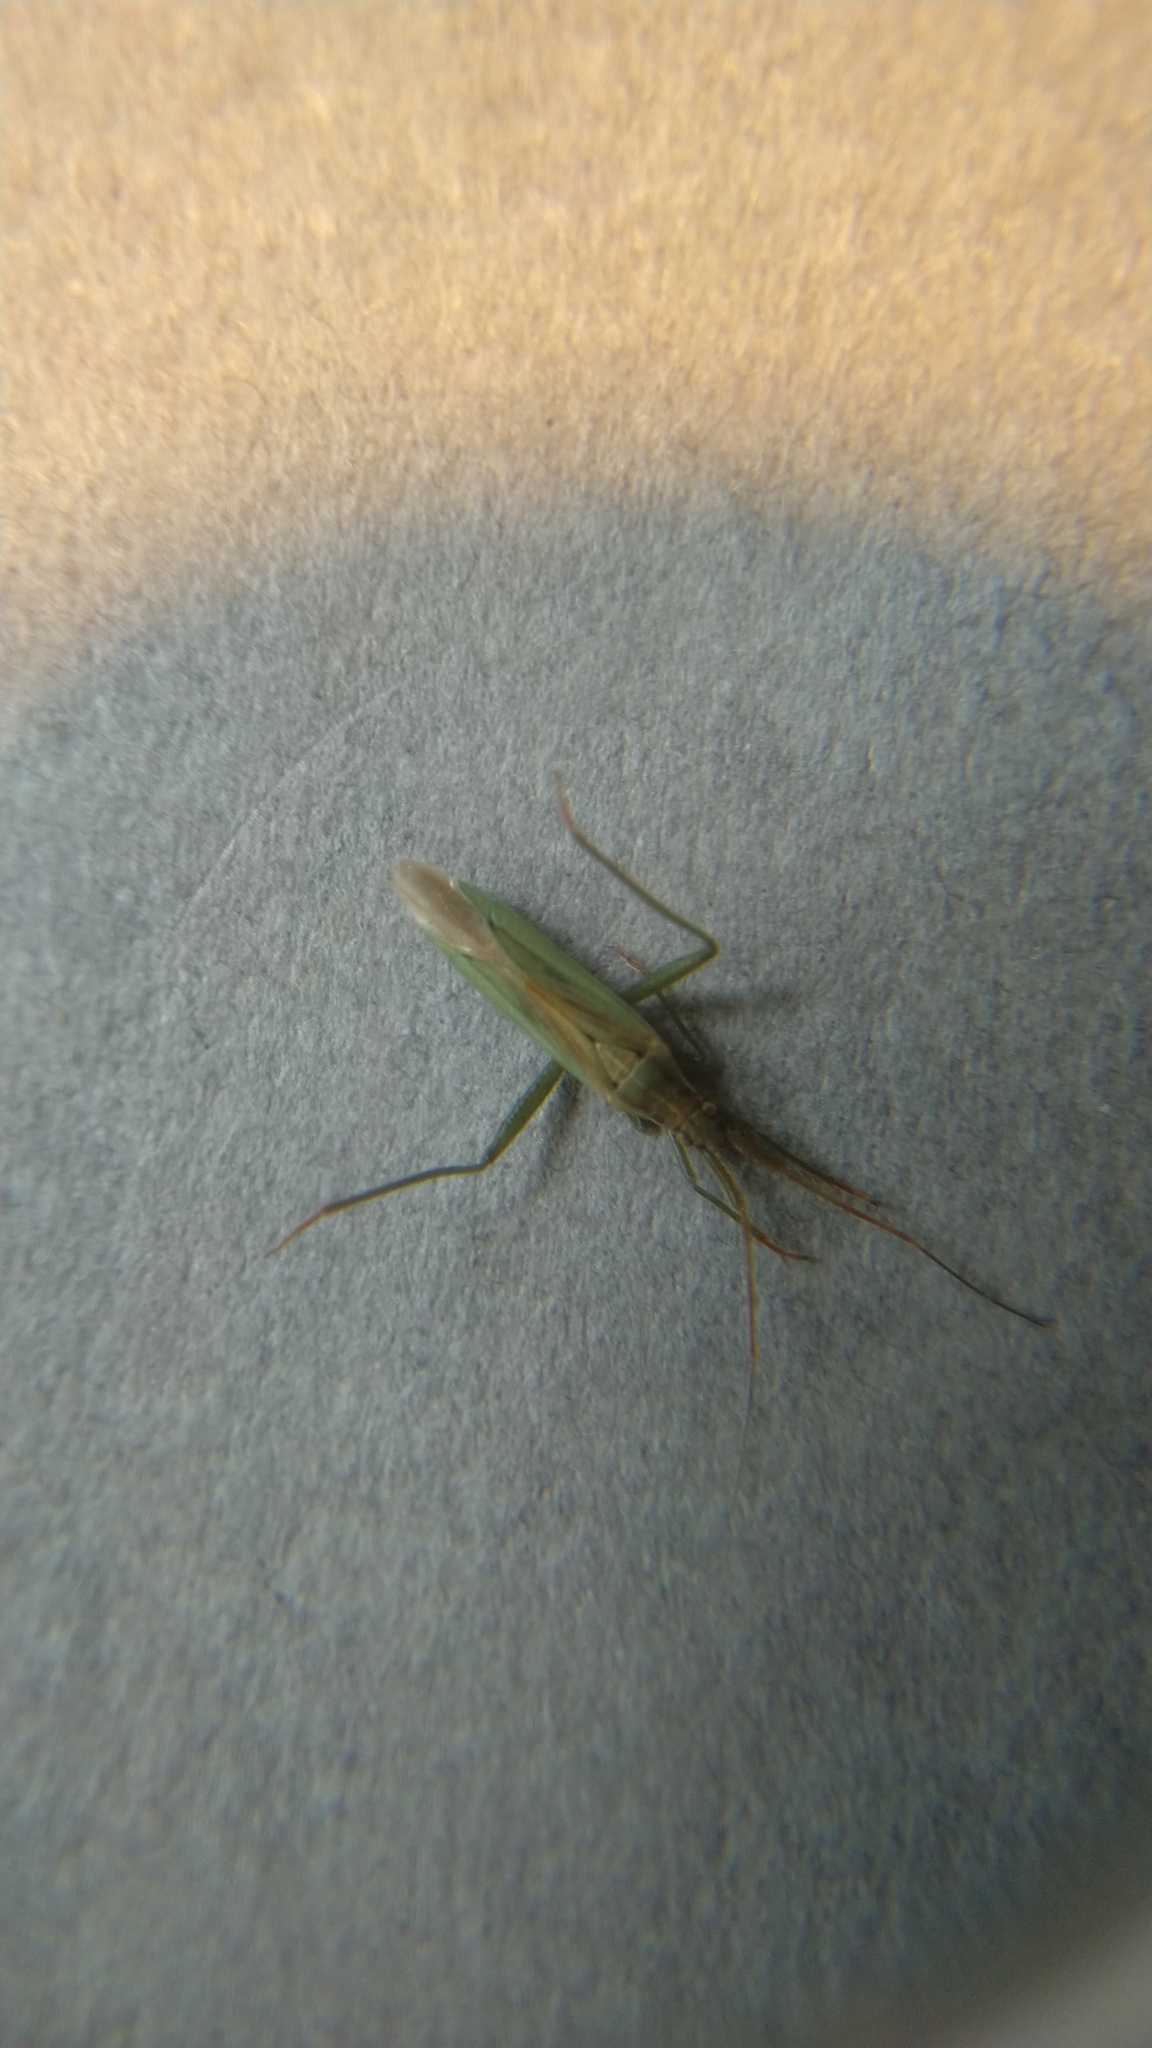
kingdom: Animalia
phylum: Arthropoda
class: Insecta
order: Hemiptera
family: Miridae
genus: Stenodema
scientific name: Stenodema laevigata
